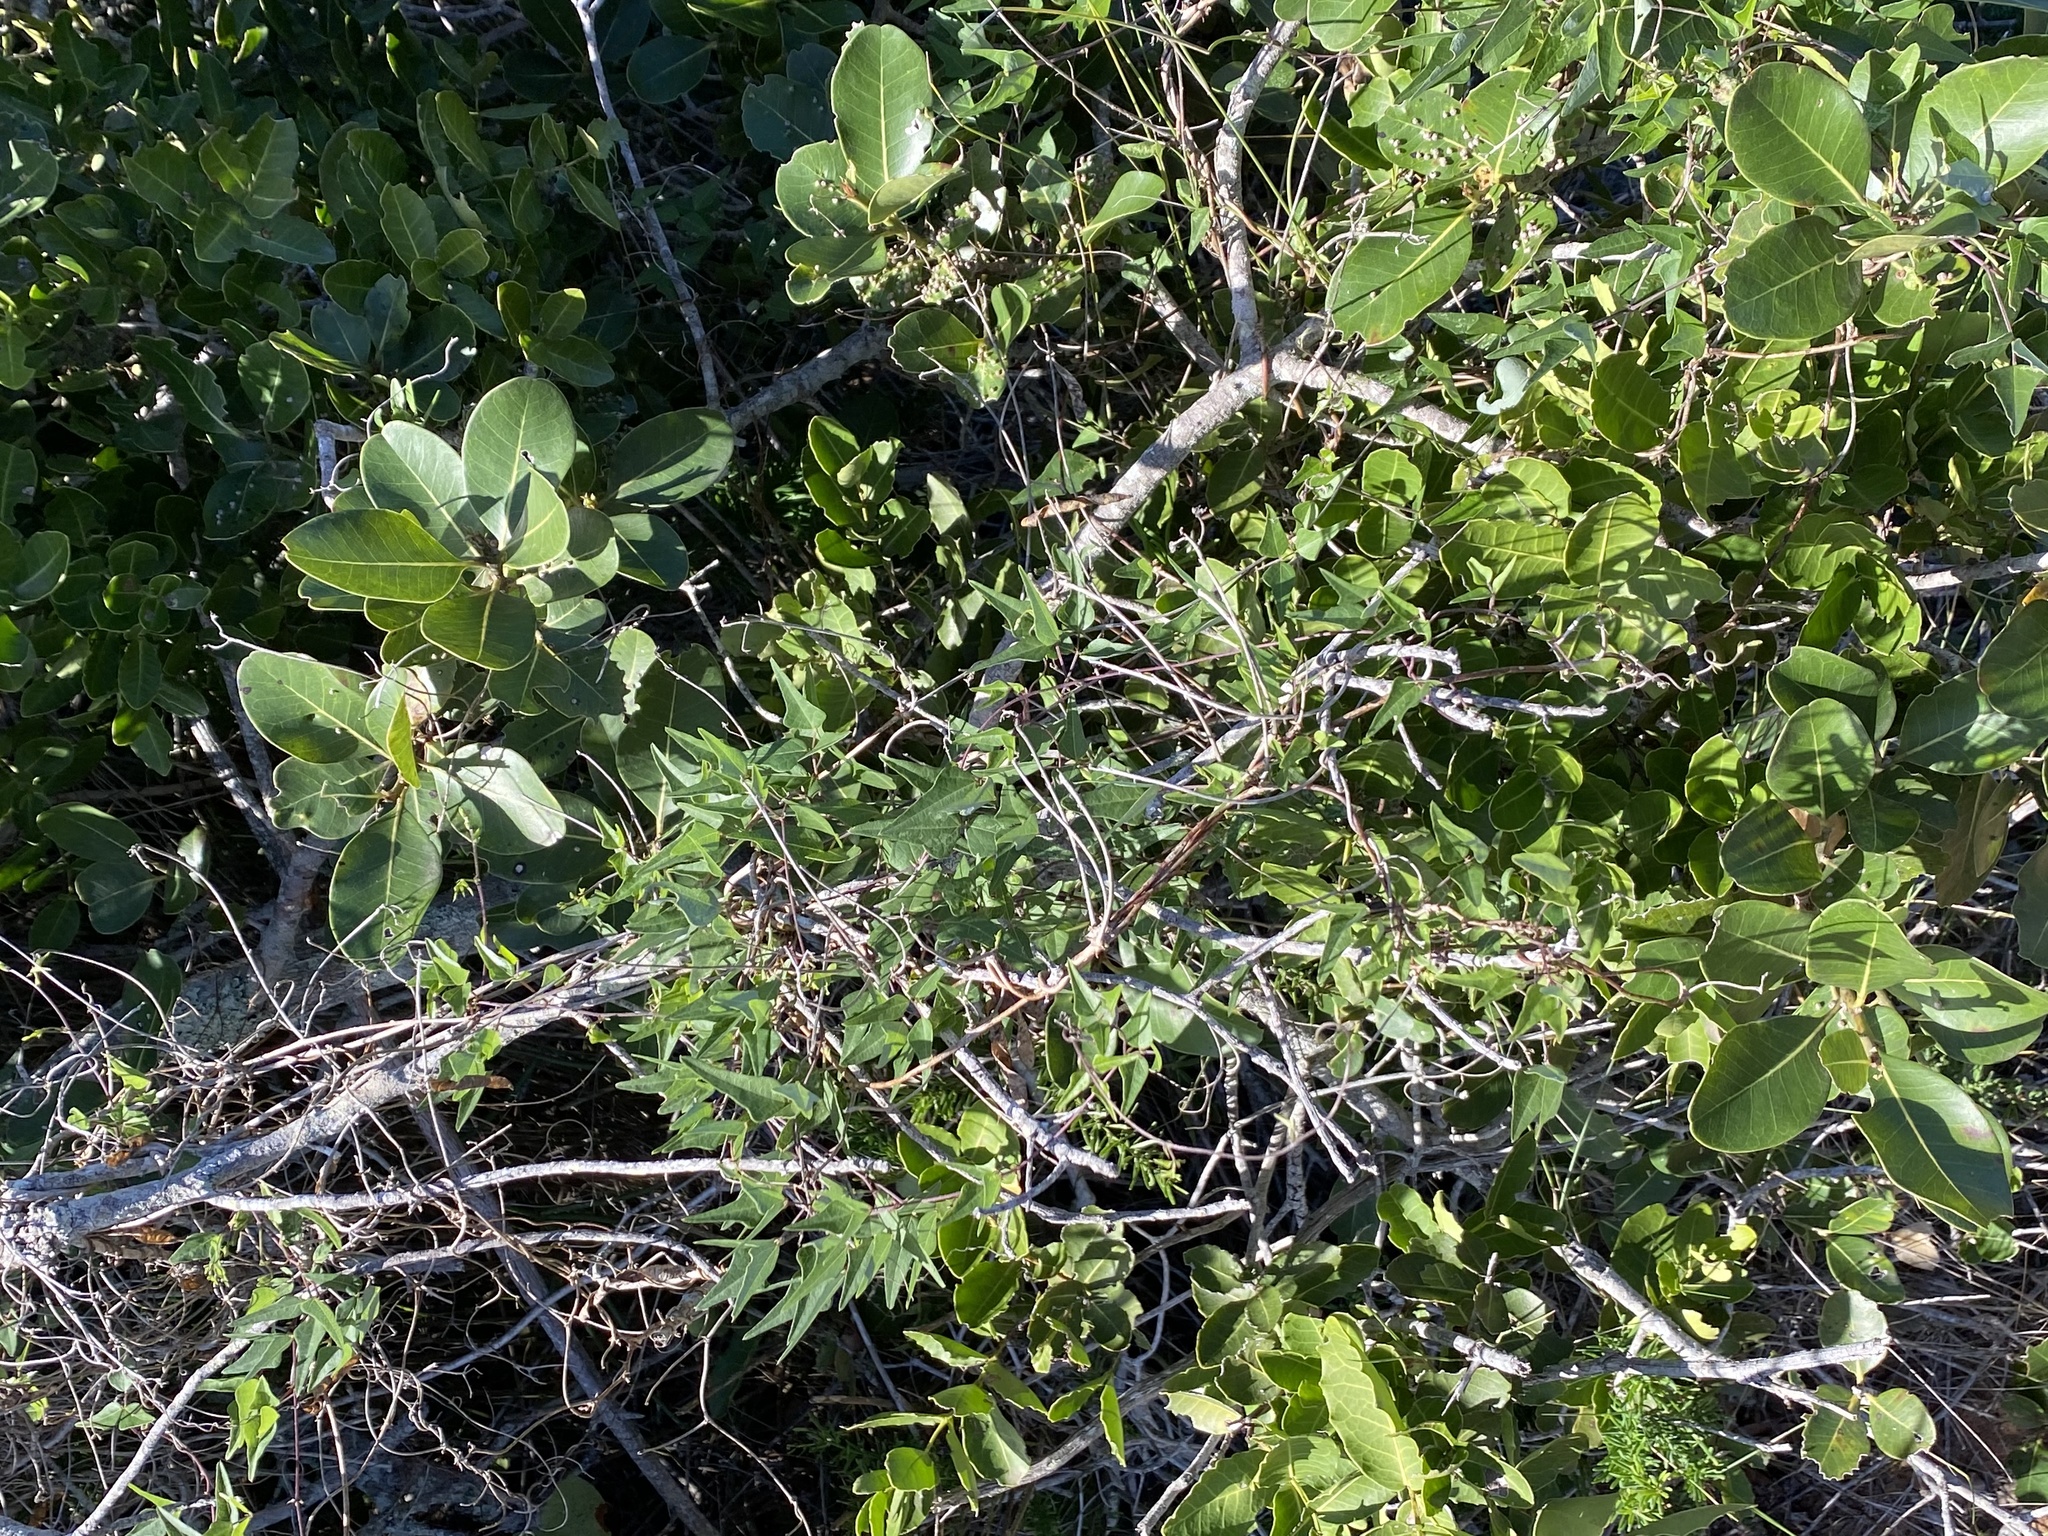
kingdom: Plantae
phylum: Tracheophyta
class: Magnoliopsida
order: Fabales
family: Fabaceae
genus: Dipogon
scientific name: Dipogon lignosus
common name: Okie bean
